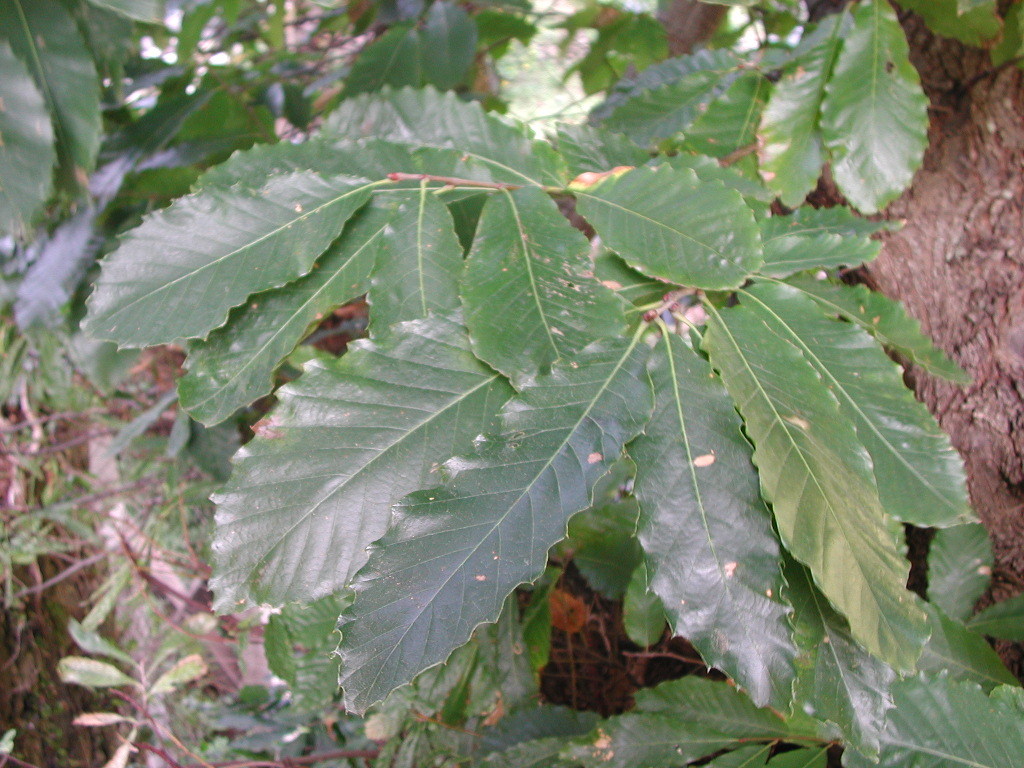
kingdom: Plantae
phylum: Tracheophyta
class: Magnoliopsida
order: Fagales
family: Fagaceae
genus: Castanea
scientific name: Castanea sativa
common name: Sweet chestnut
